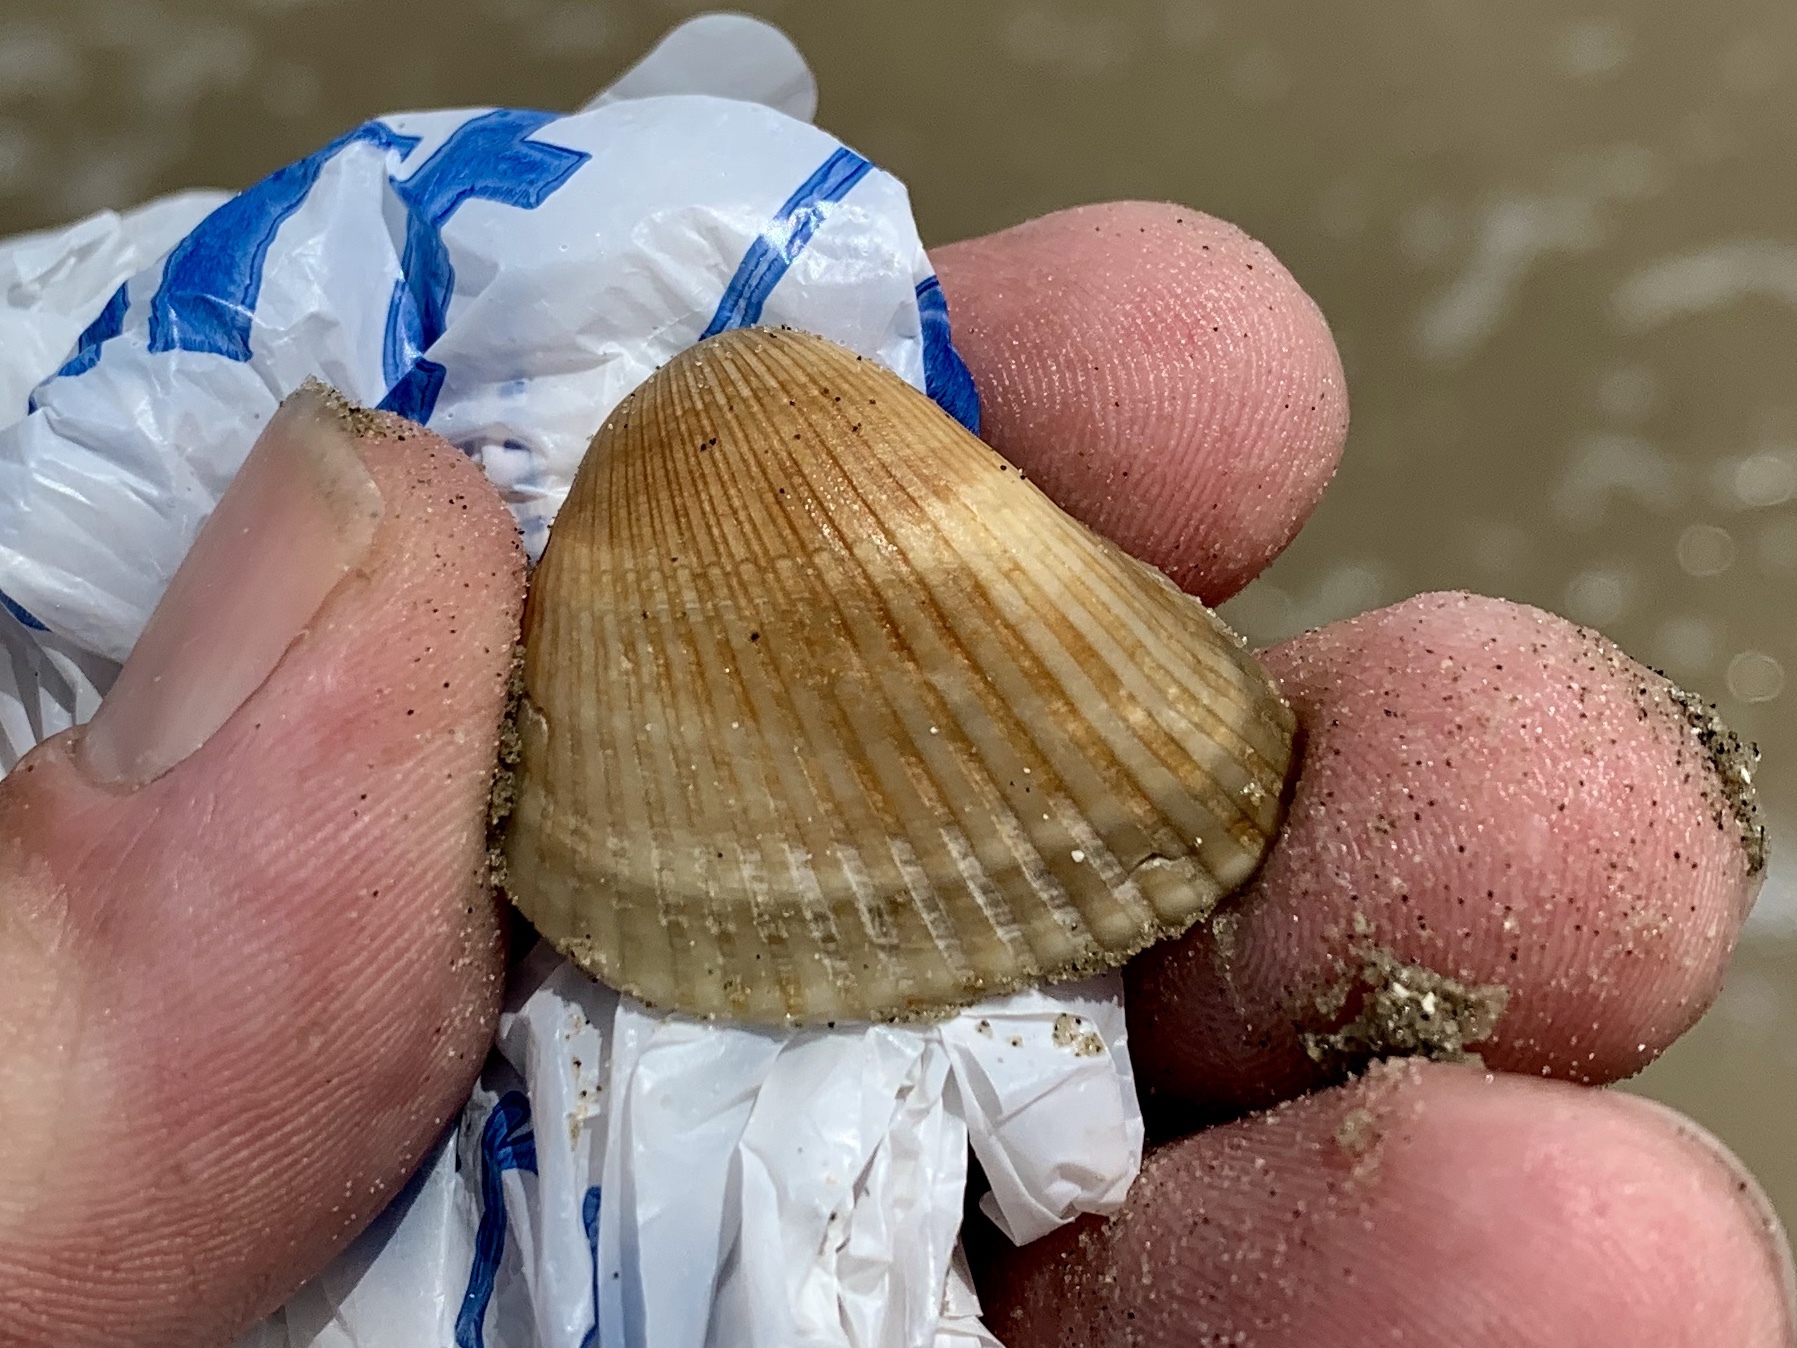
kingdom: Animalia
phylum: Mollusca
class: Bivalvia
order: Arcida
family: Noetiidae
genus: Noetia
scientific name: Noetia ponderosa
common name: Ponderous ark
